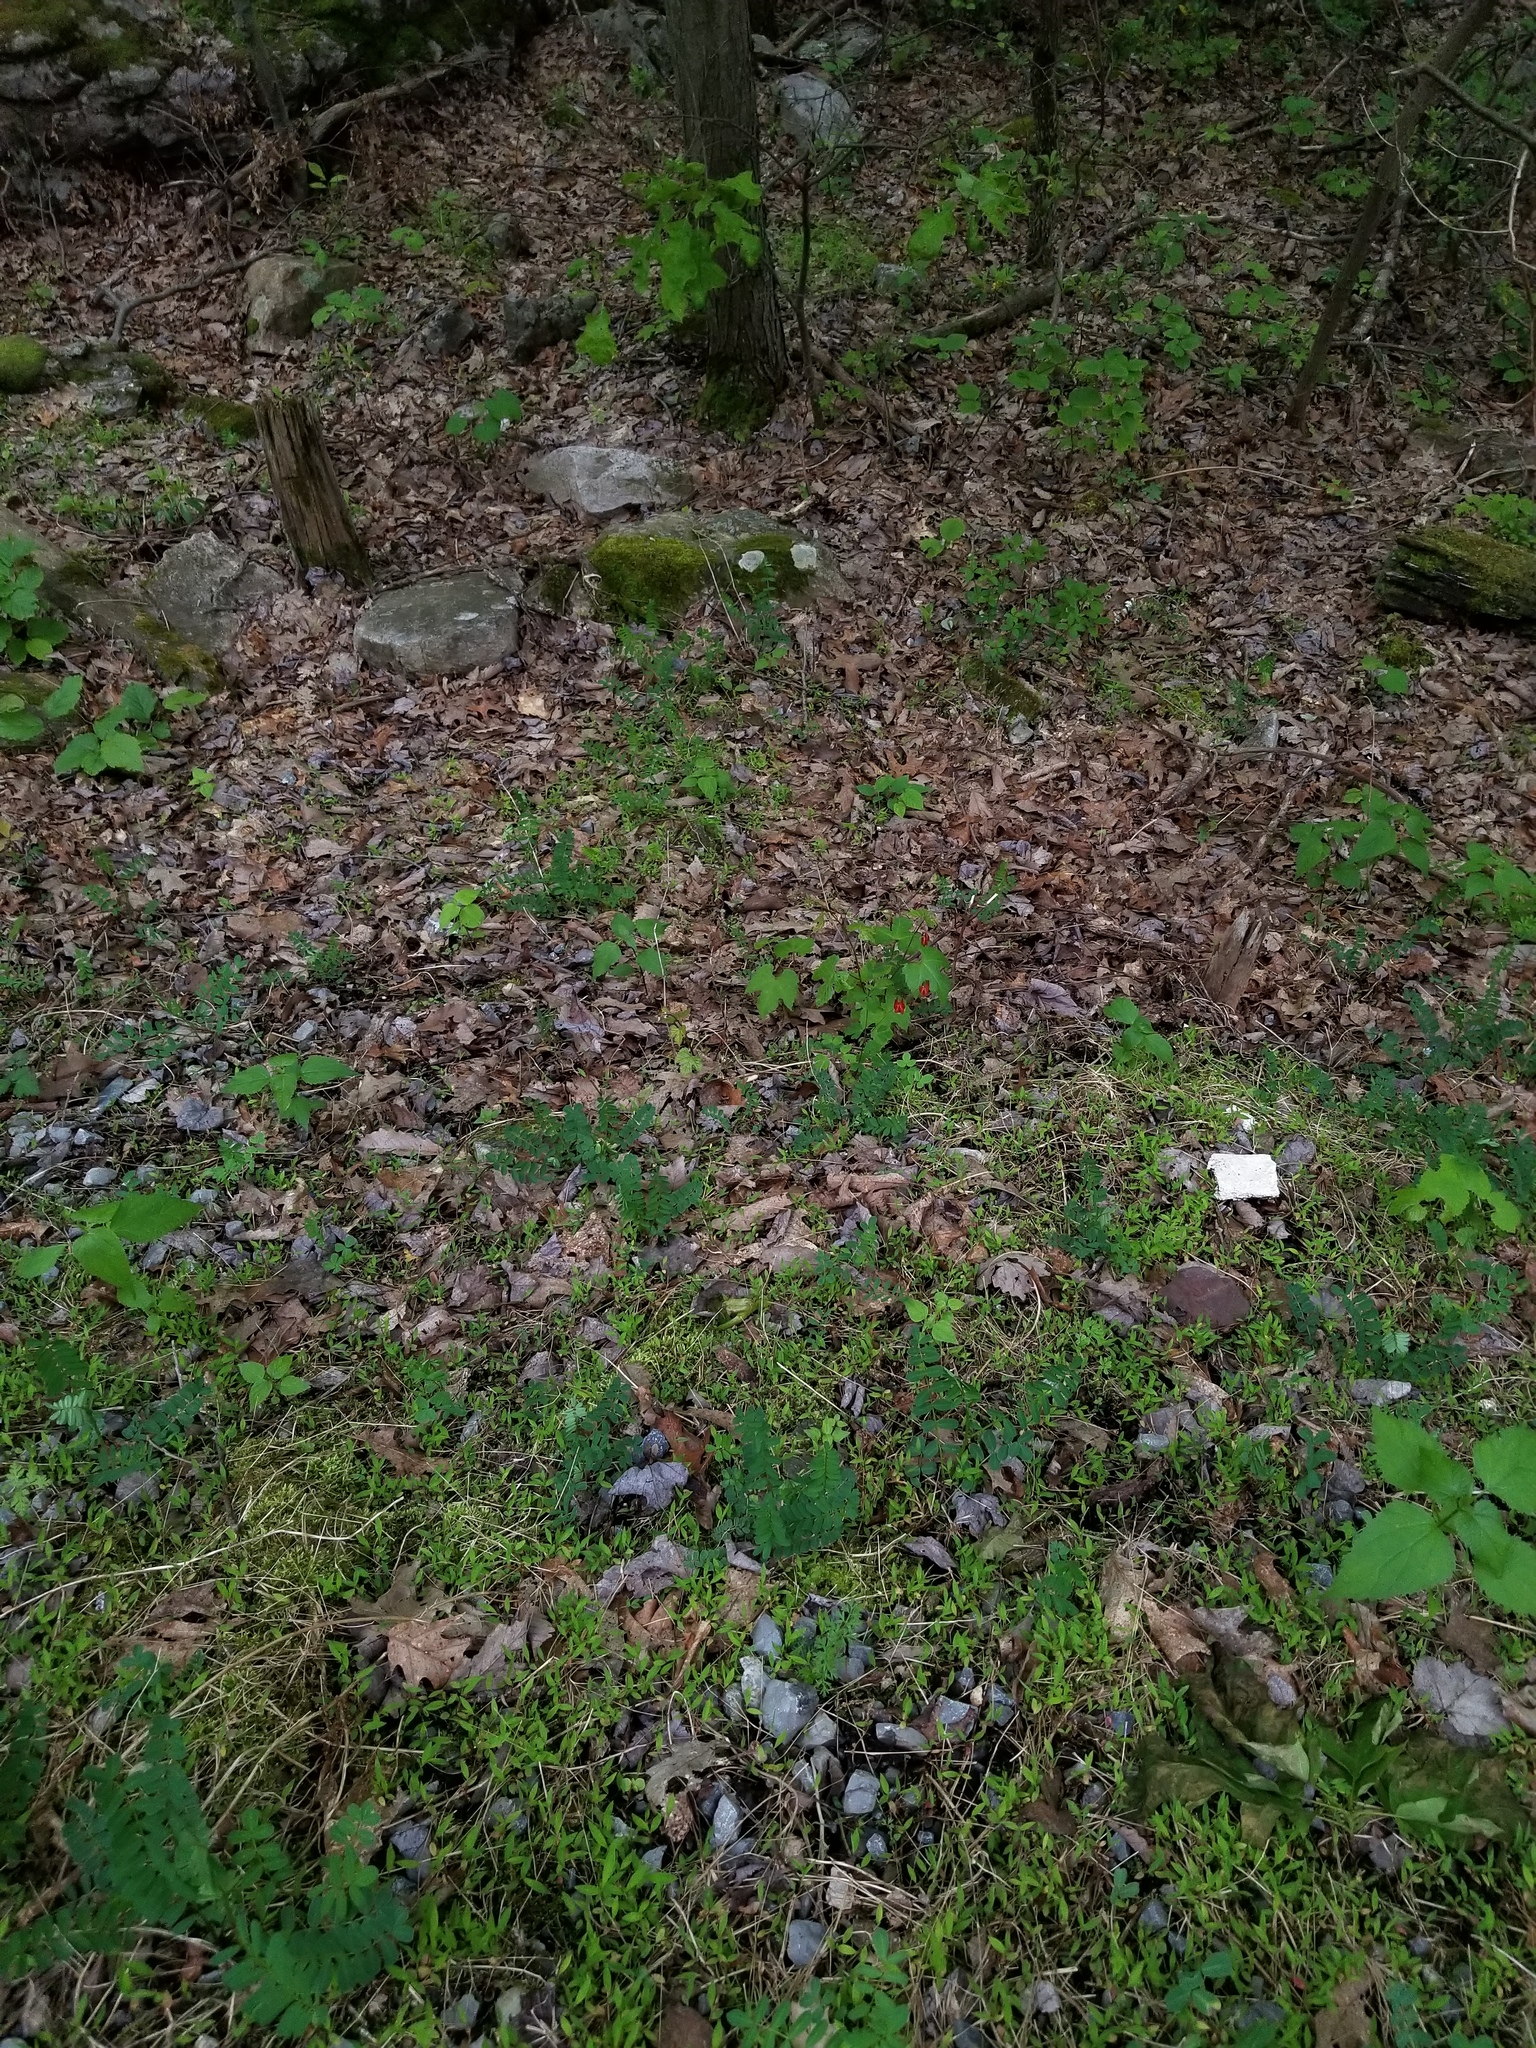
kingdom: Plantae
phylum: Tracheophyta
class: Magnoliopsida
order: Ranunculales
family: Ranunculaceae
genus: Aquilegia
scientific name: Aquilegia canadensis
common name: American columbine
